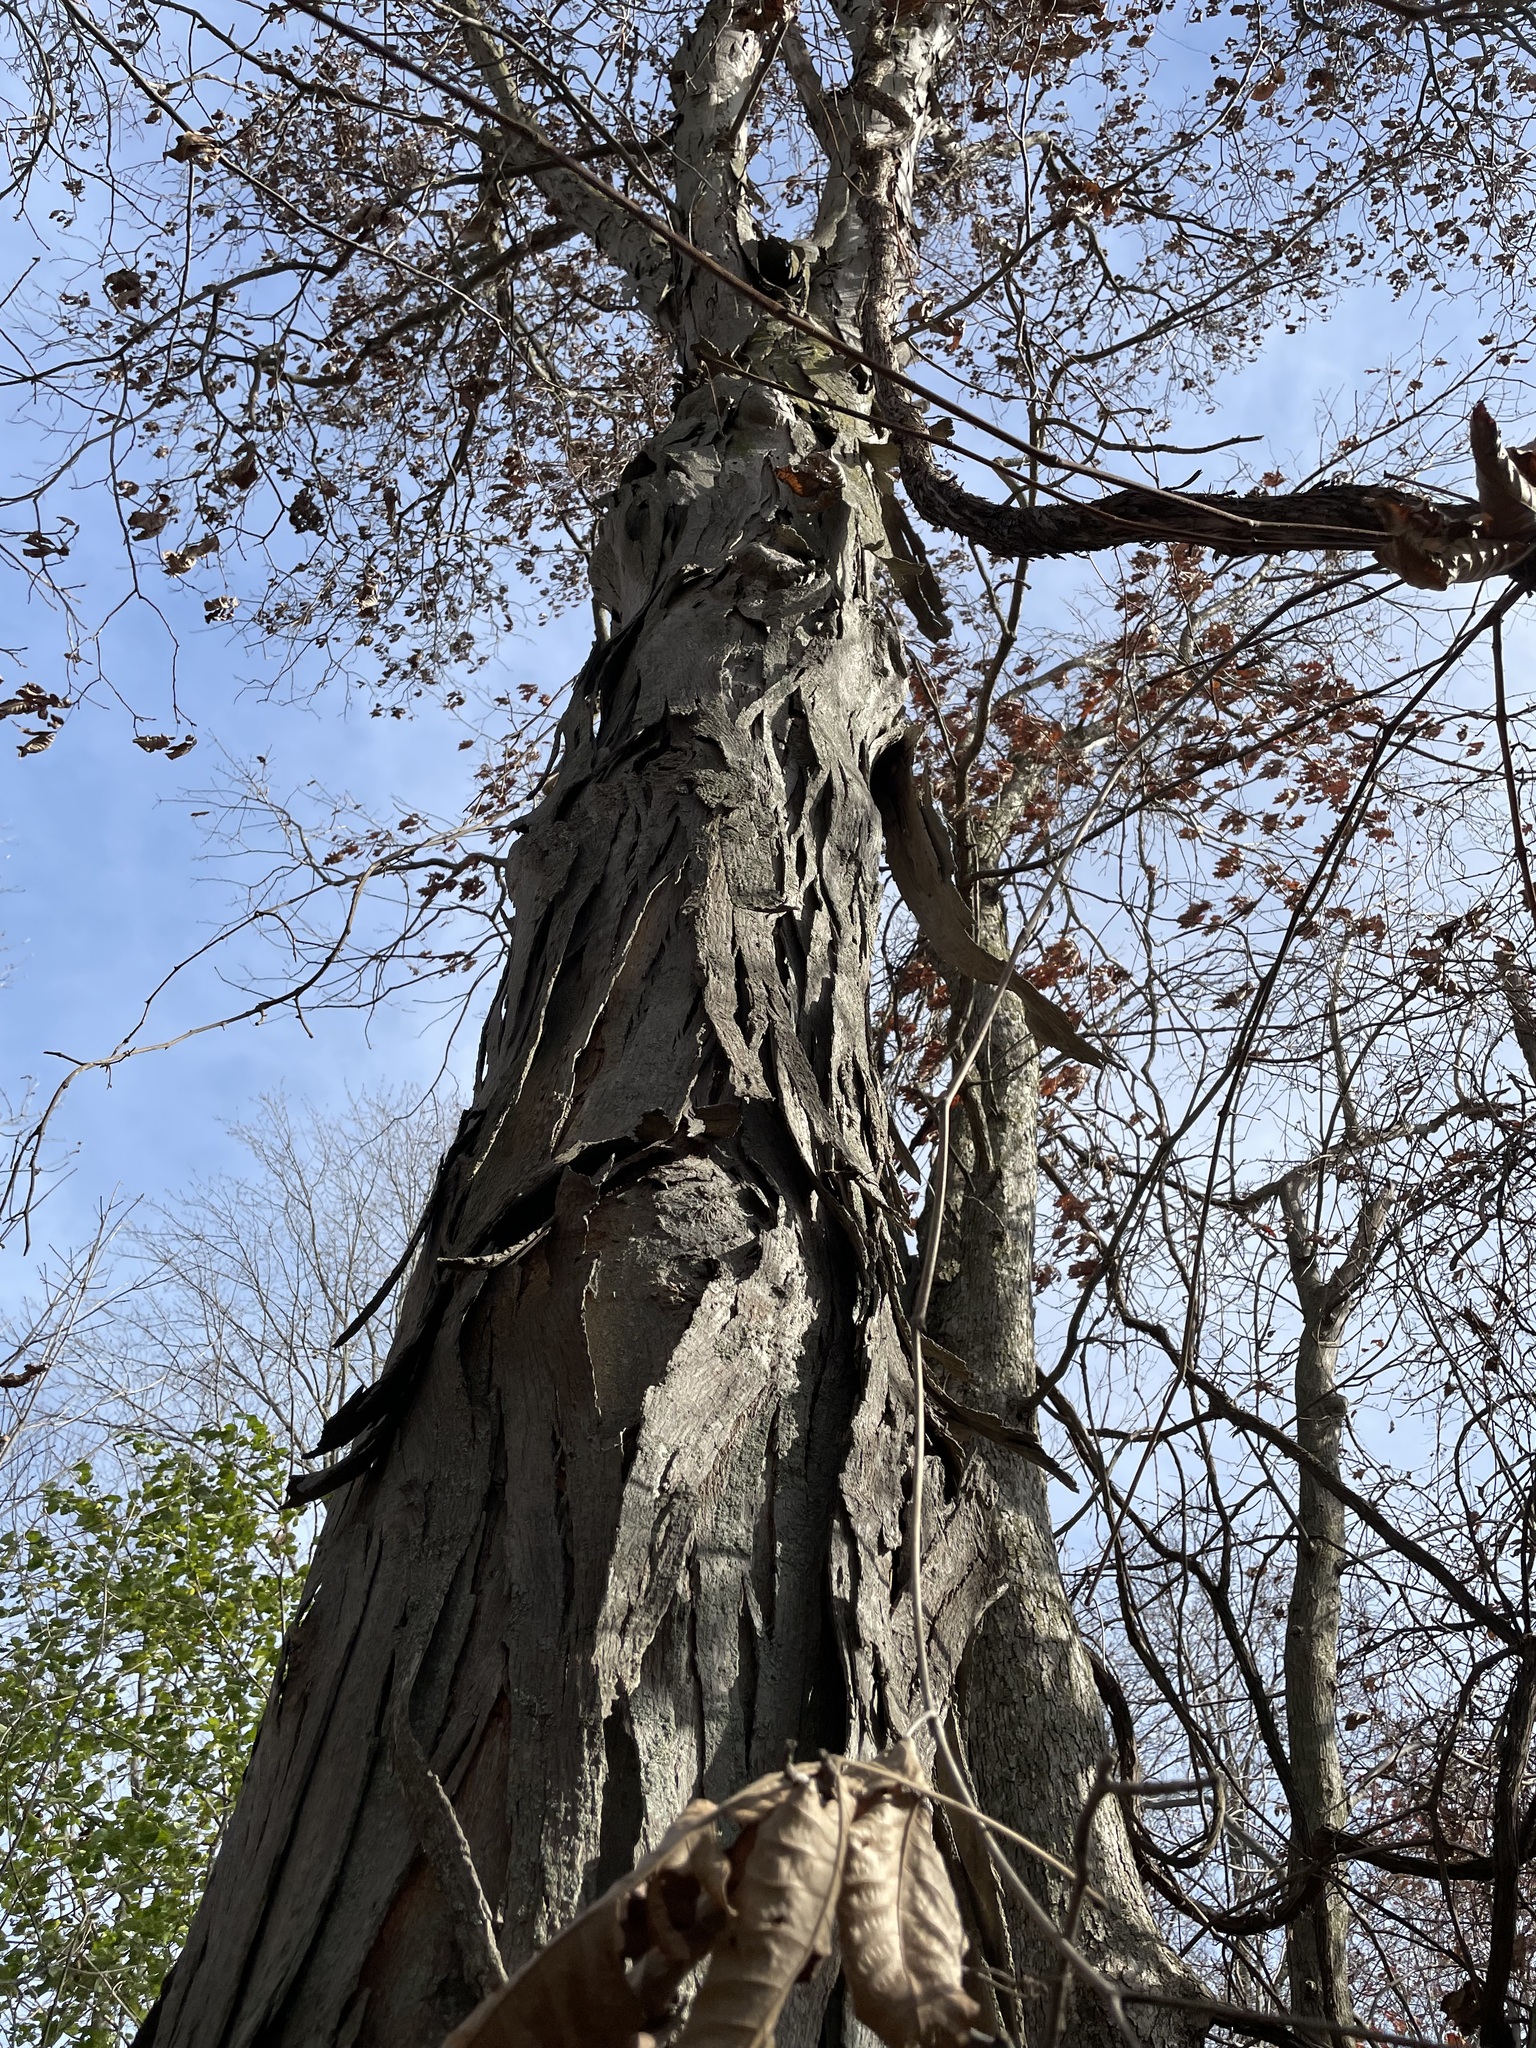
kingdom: Plantae
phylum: Tracheophyta
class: Magnoliopsida
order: Fagales
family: Juglandaceae
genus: Carya
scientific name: Carya ovata
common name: Shagbark hickory
